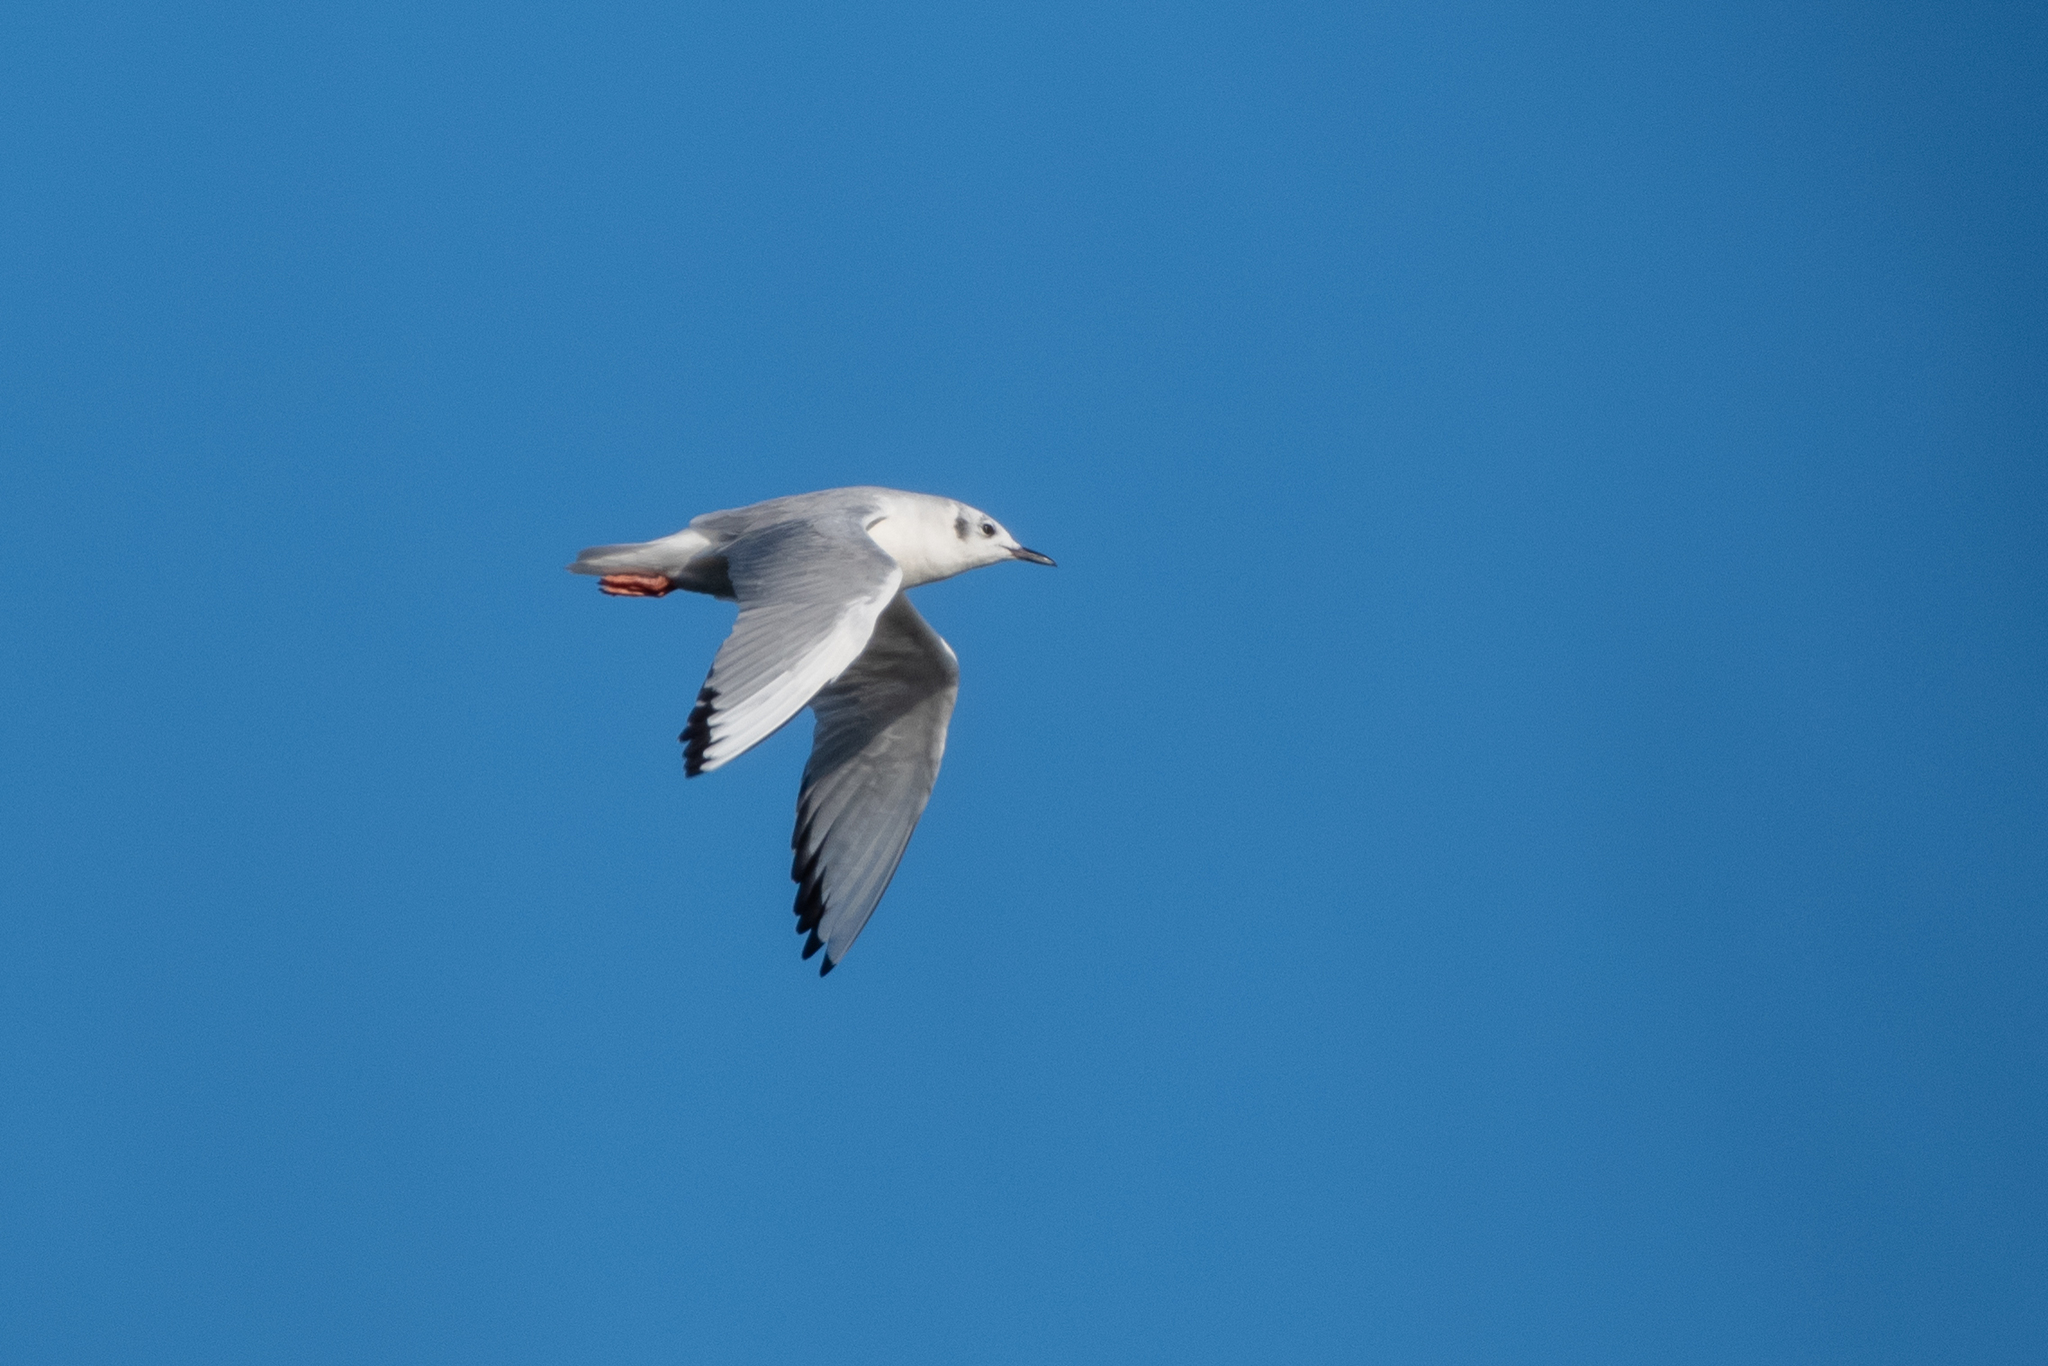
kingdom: Animalia
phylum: Chordata
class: Aves
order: Charadriiformes
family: Laridae
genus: Chroicocephalus
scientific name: Chroicocephalus philadelphia
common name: Bonaparte's gull
